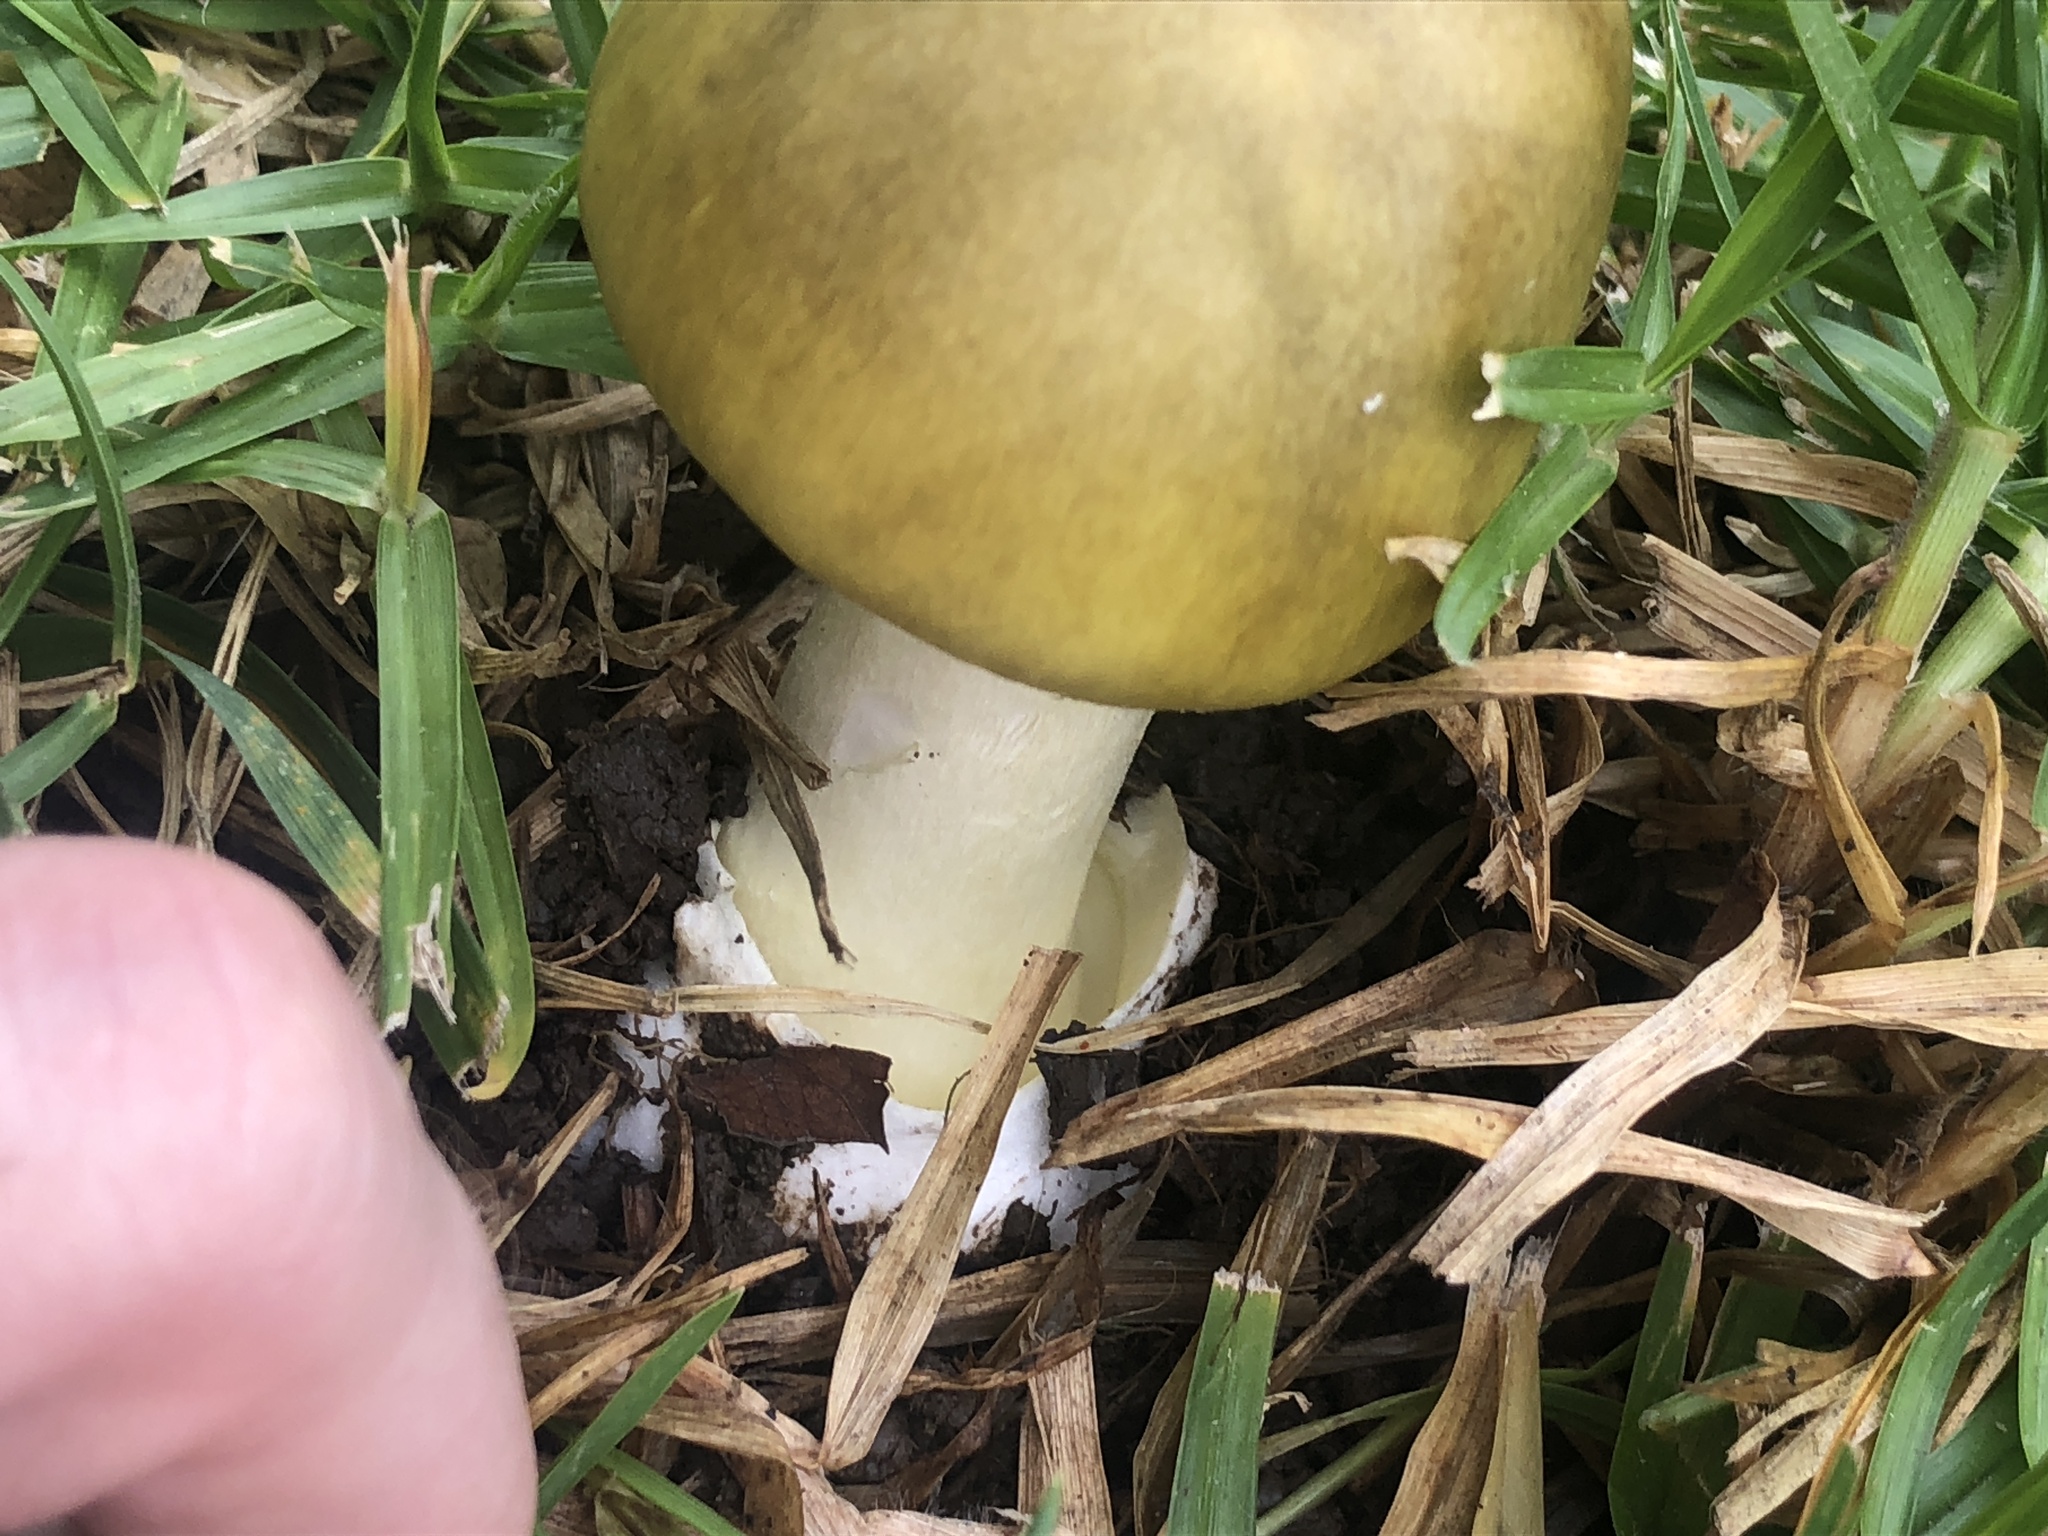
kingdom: Fungi
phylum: Basidiomycota
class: Agaricomycetes
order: Agaricales
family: Amanitaceae
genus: Amanita
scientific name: Amanita phalloides
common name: Death cap
